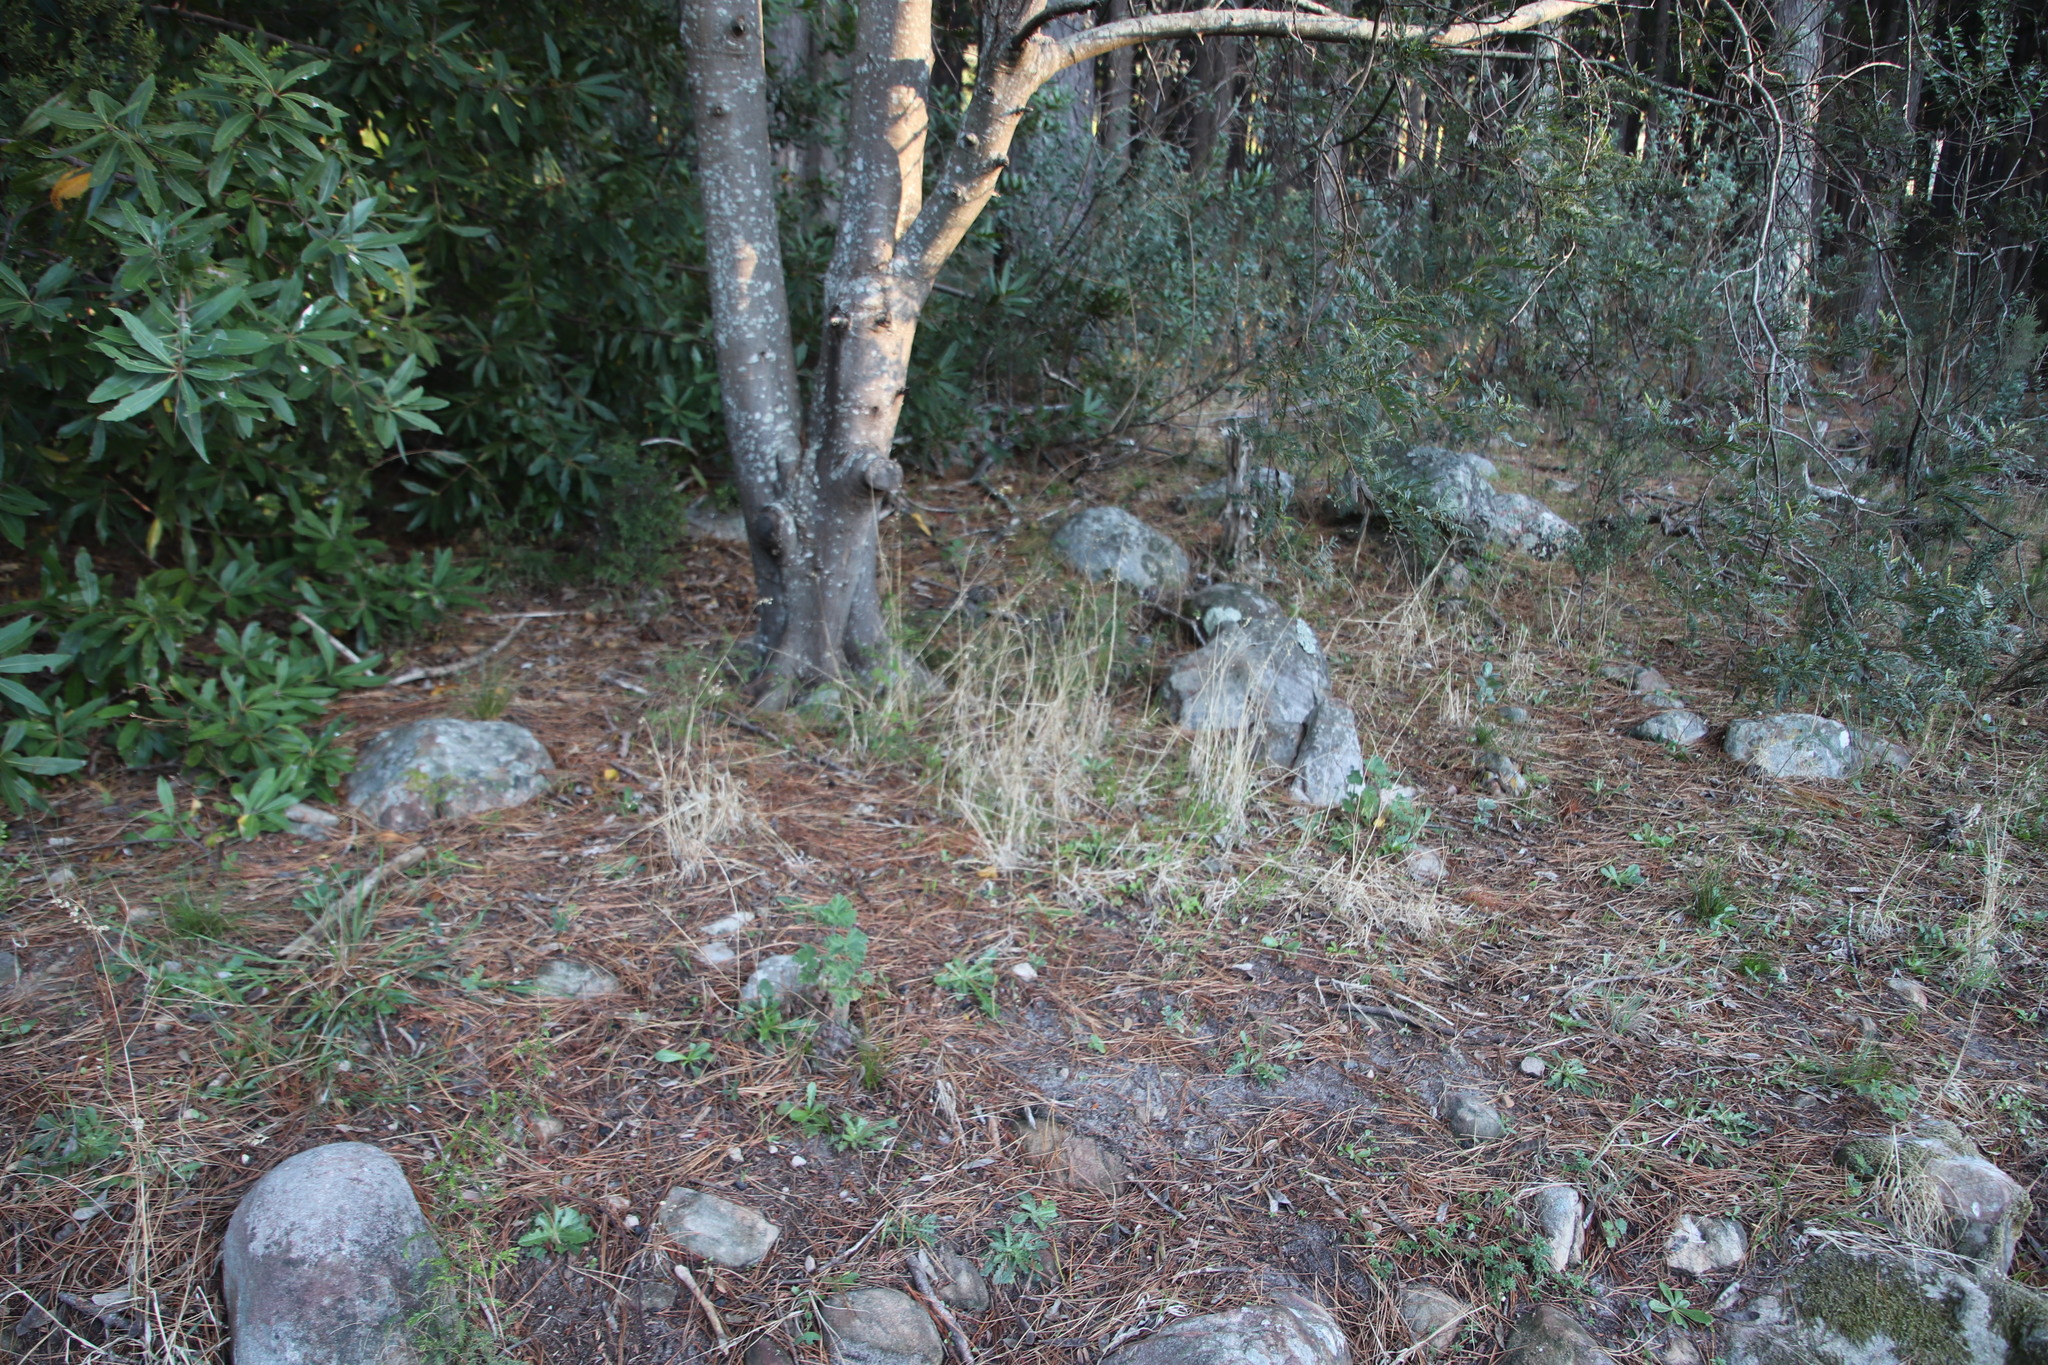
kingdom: Plantae
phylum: Tracheophyta
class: Liliopsida
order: Poales
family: Poaceae
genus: Briza
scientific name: Briza maxima
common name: Big quakinggrass
